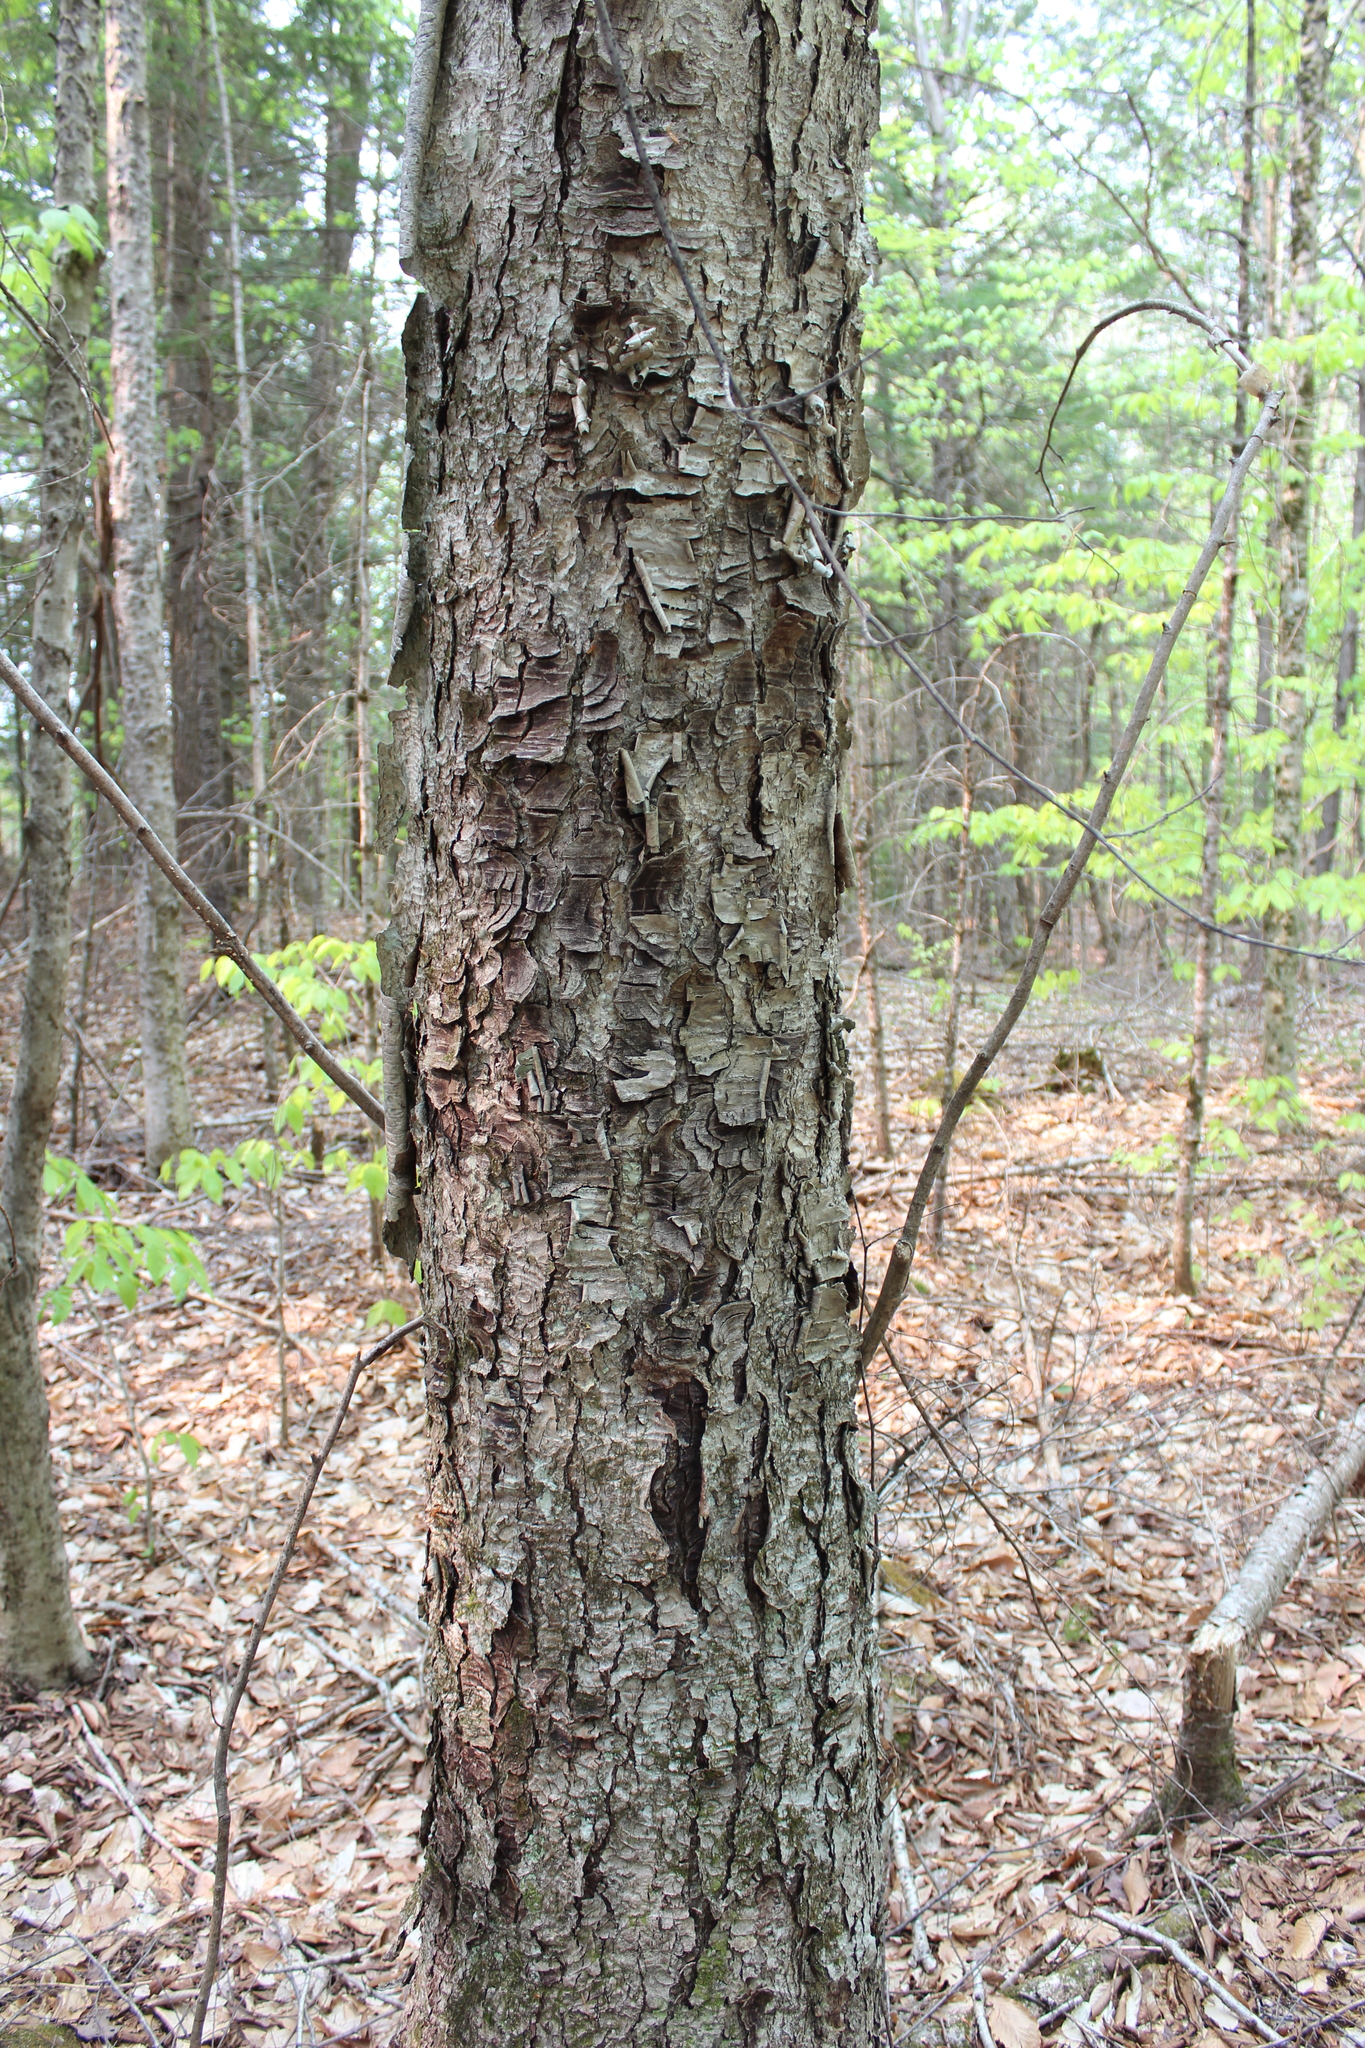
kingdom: Plantae
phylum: Tracheophyta
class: Magnoliopsida
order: Fagales
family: Betulaceae
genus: Betula
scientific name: Betula alleghaniensis
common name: Yellow birch
